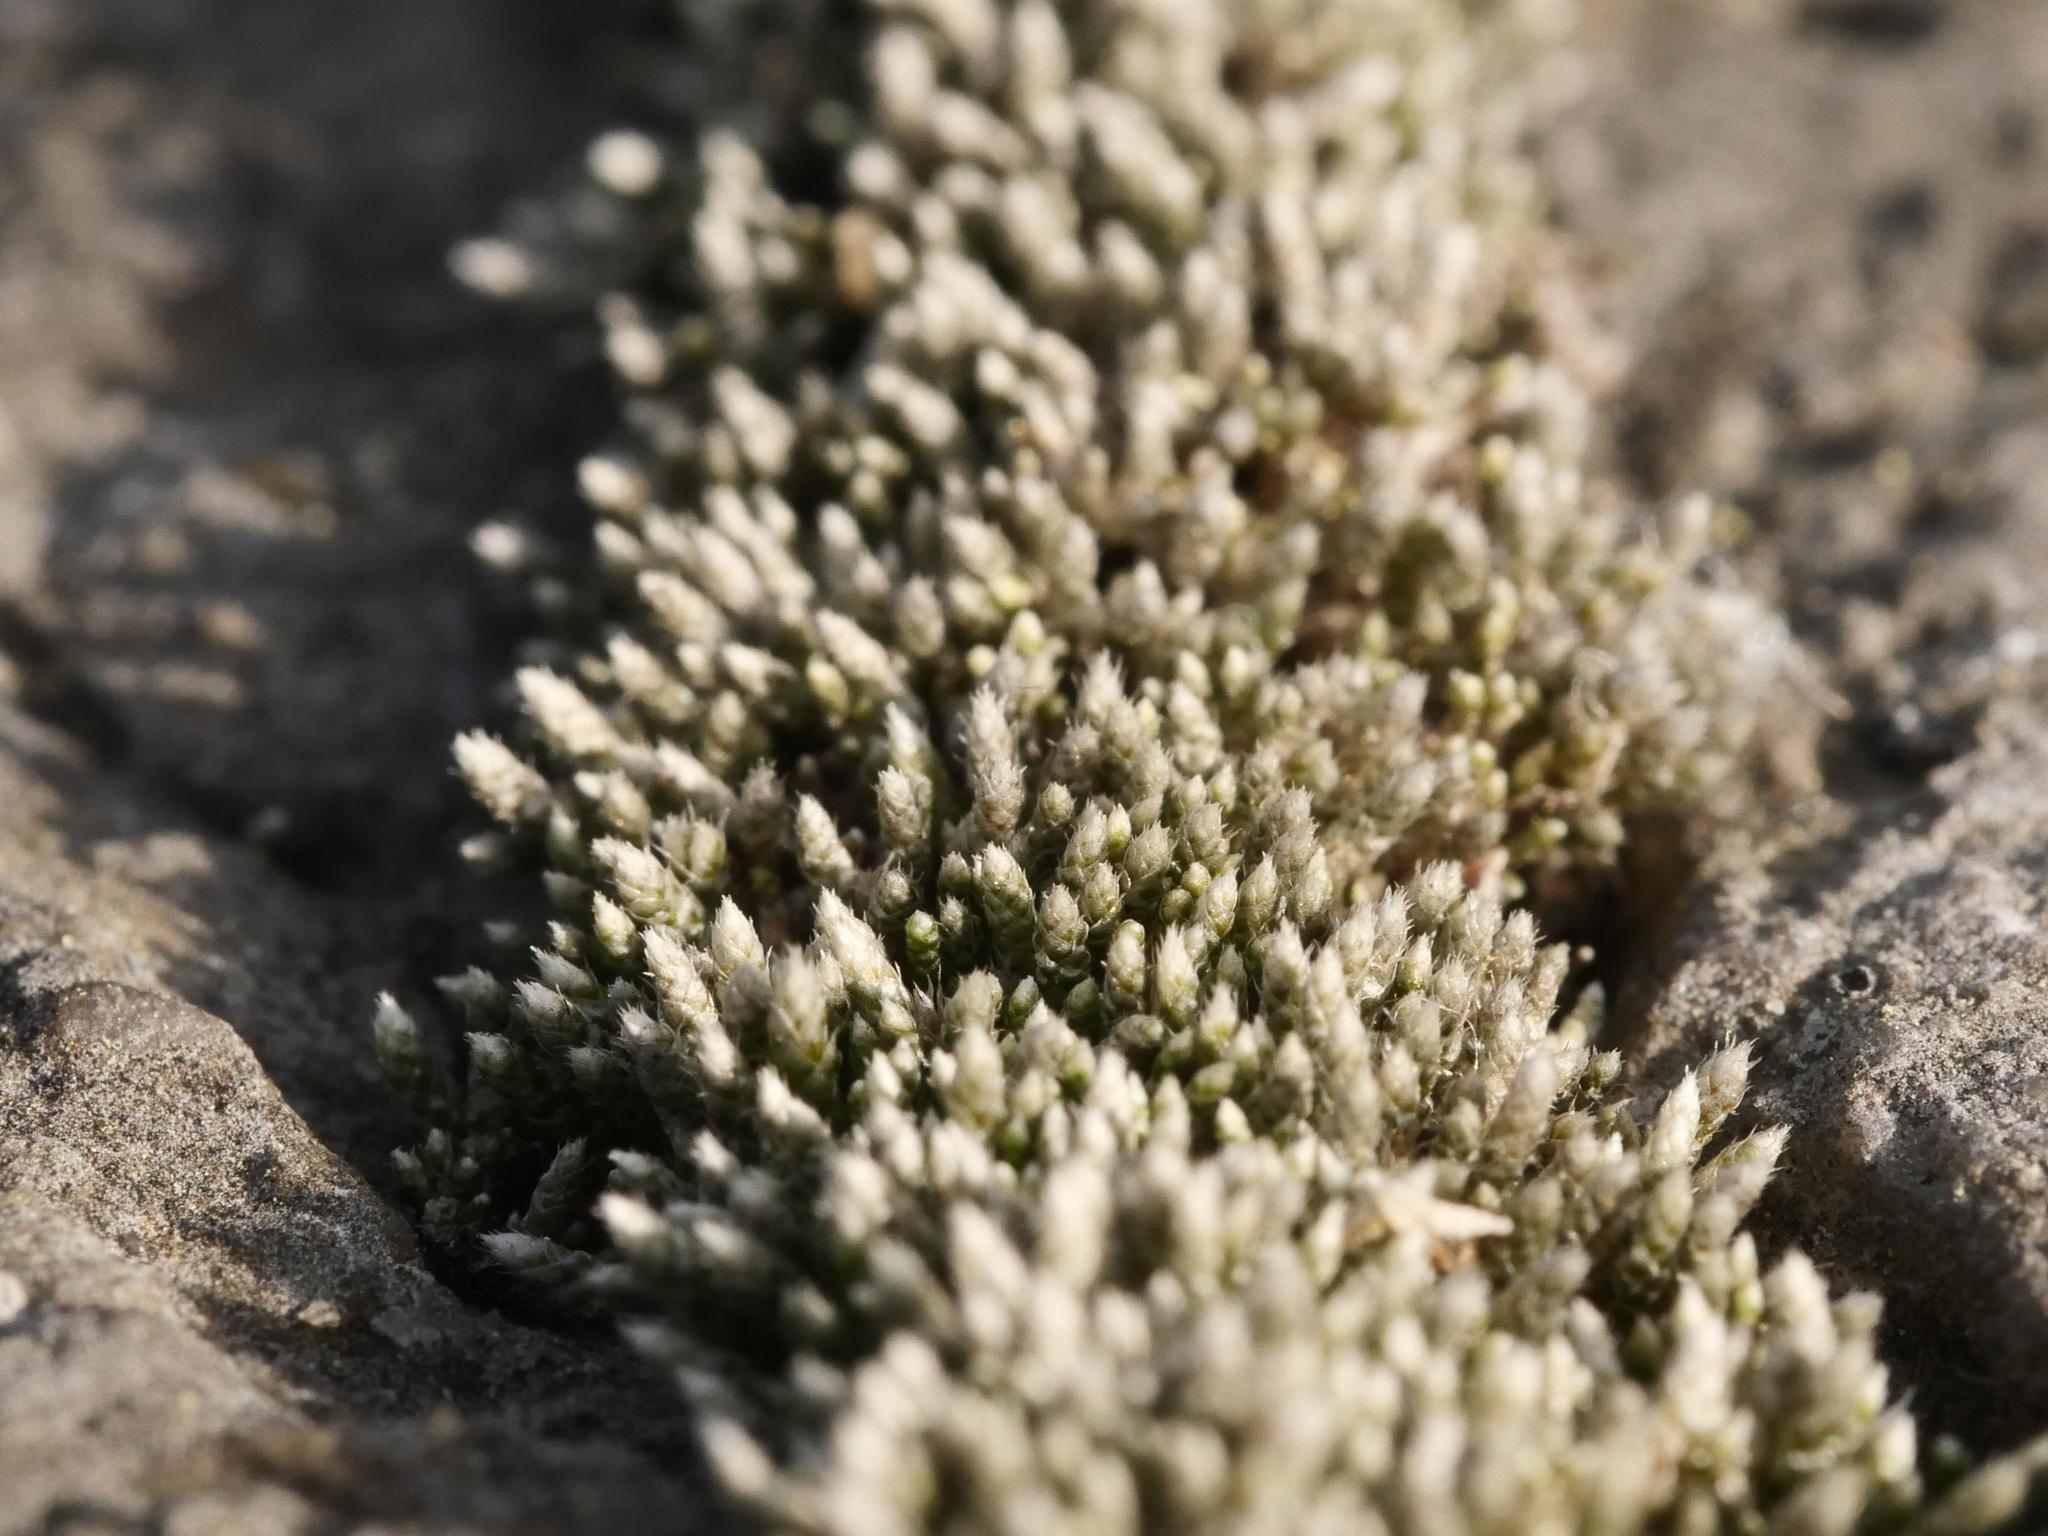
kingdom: Plantae
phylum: Bryophyta
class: Bryopsida
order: Bryales
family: Bryaceae
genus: Bryum
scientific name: Bryum argenteum
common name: Silver-moss
